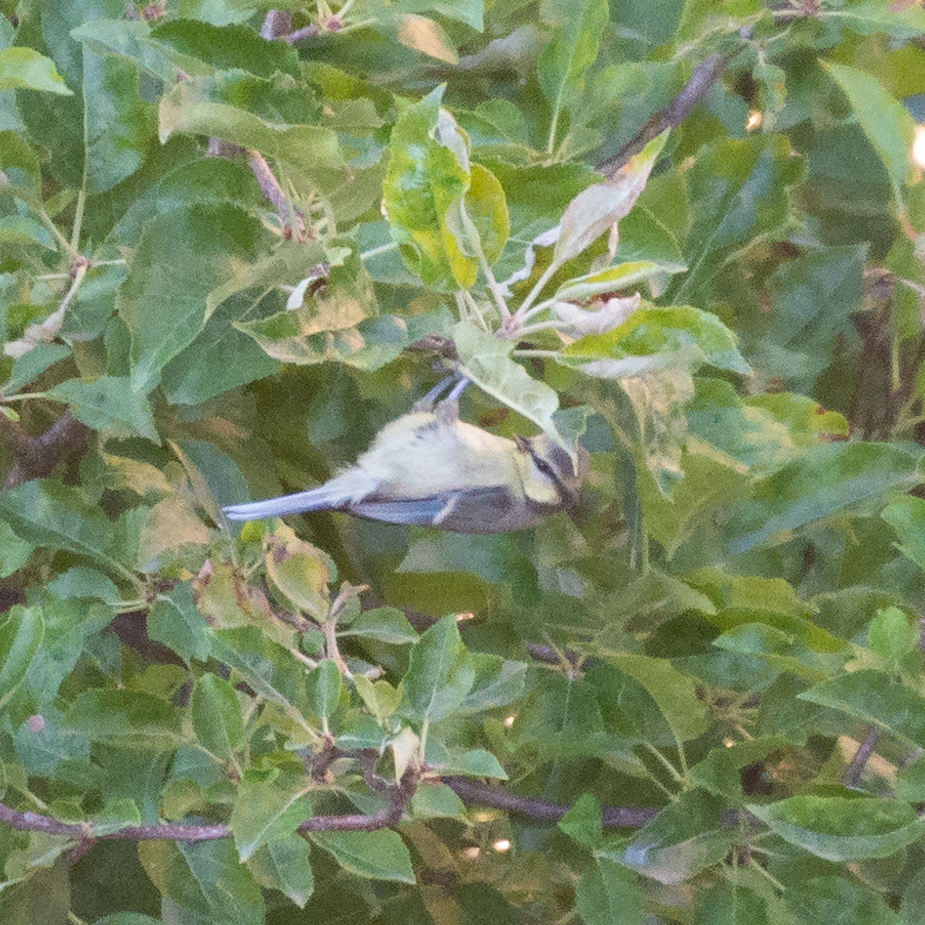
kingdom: Animalia
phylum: Chordata
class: Aves
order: Passeriformes
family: Paridae
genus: Cyanistes
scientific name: Cyanistes caeruleus
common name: Eurasian blue tit
